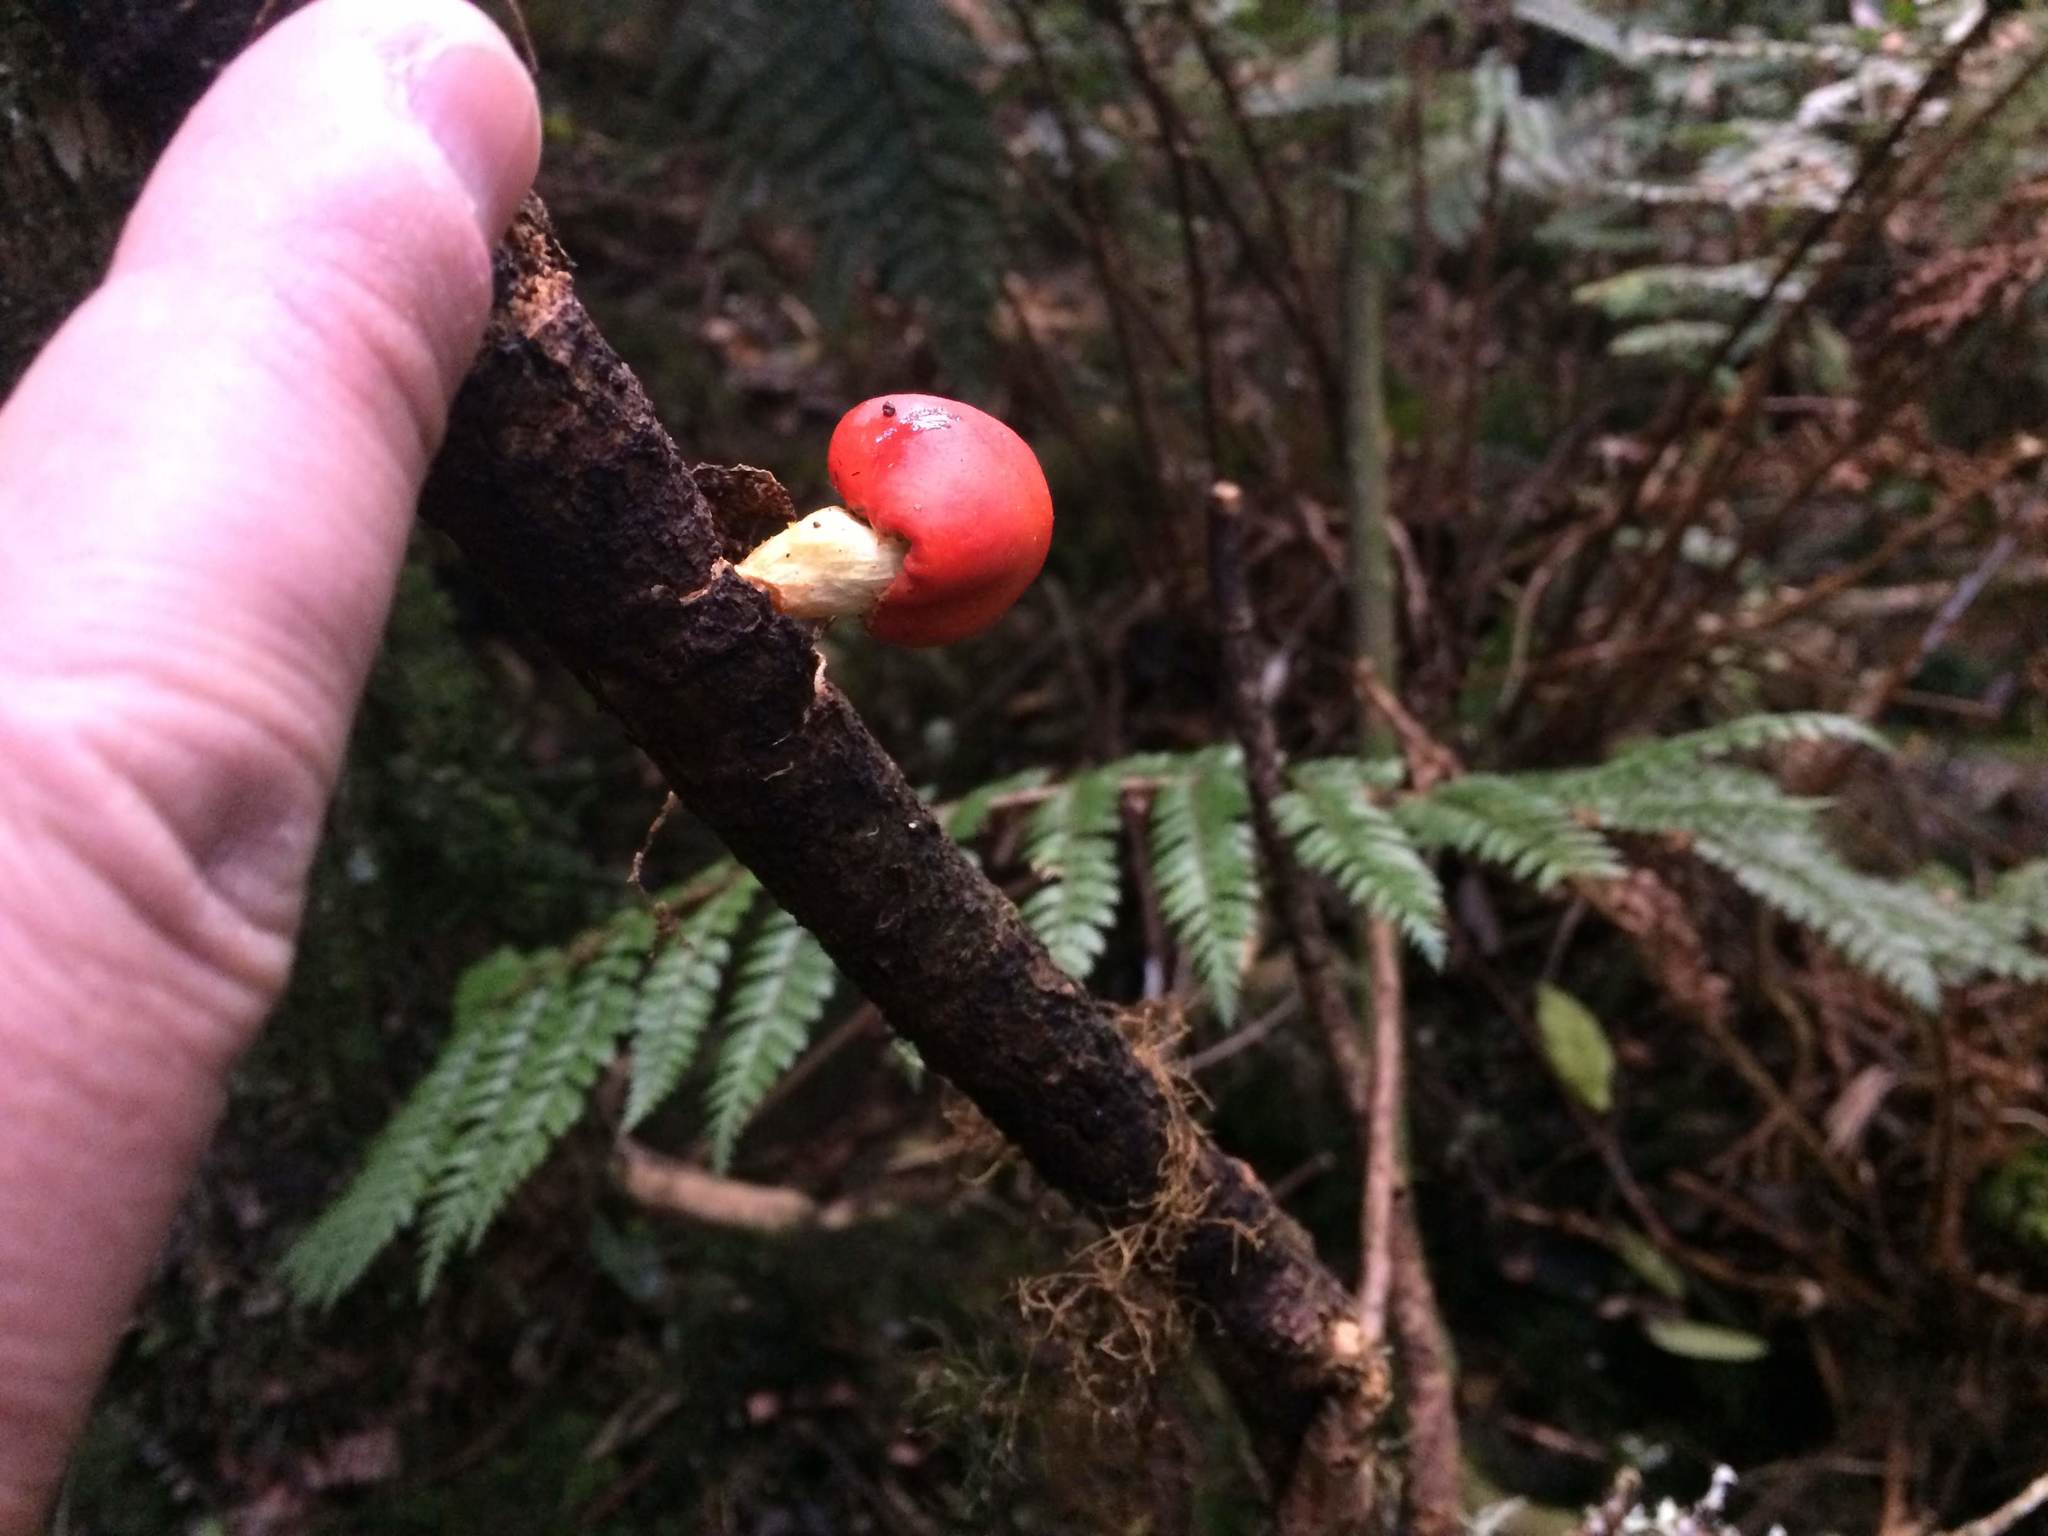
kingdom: Fungi
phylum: Basidiomycota
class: Agaricomycetes
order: Agaricales
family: Strophariaceae
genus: Leratiomyces
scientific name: Leratiomyces erythrocephalus
